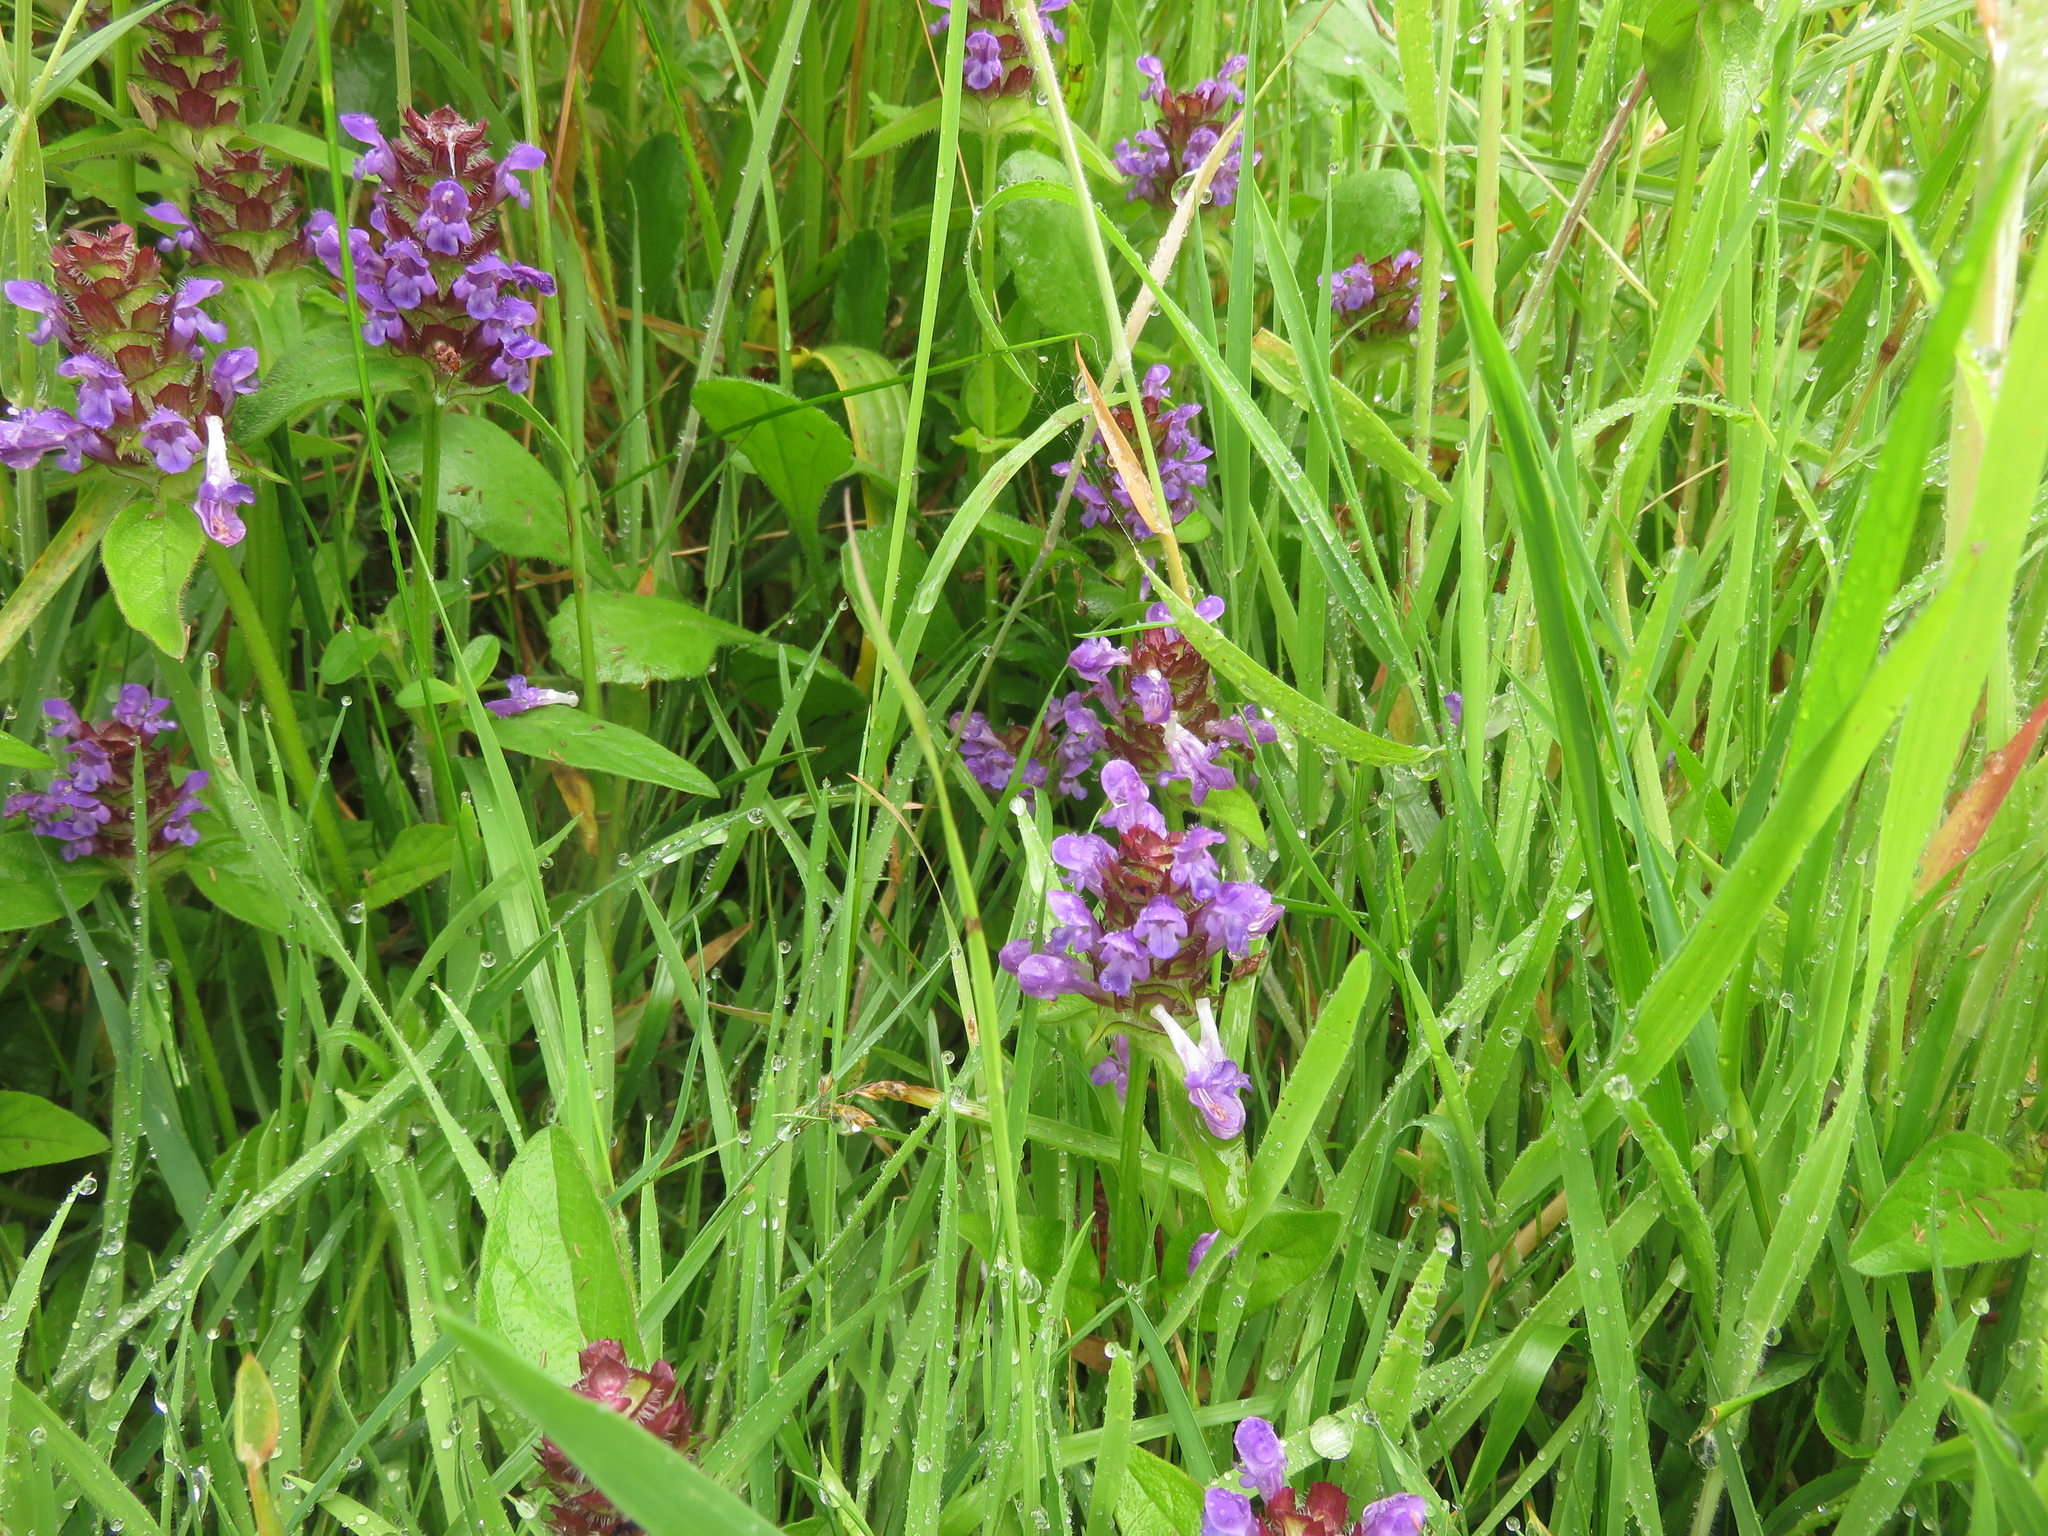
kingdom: Plantae
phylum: Tracheophyta
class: Magnoliopsida
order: Lamiales
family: Lamiaceae
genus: Prunella
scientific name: Prunella vulgaris
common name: Heal-all
